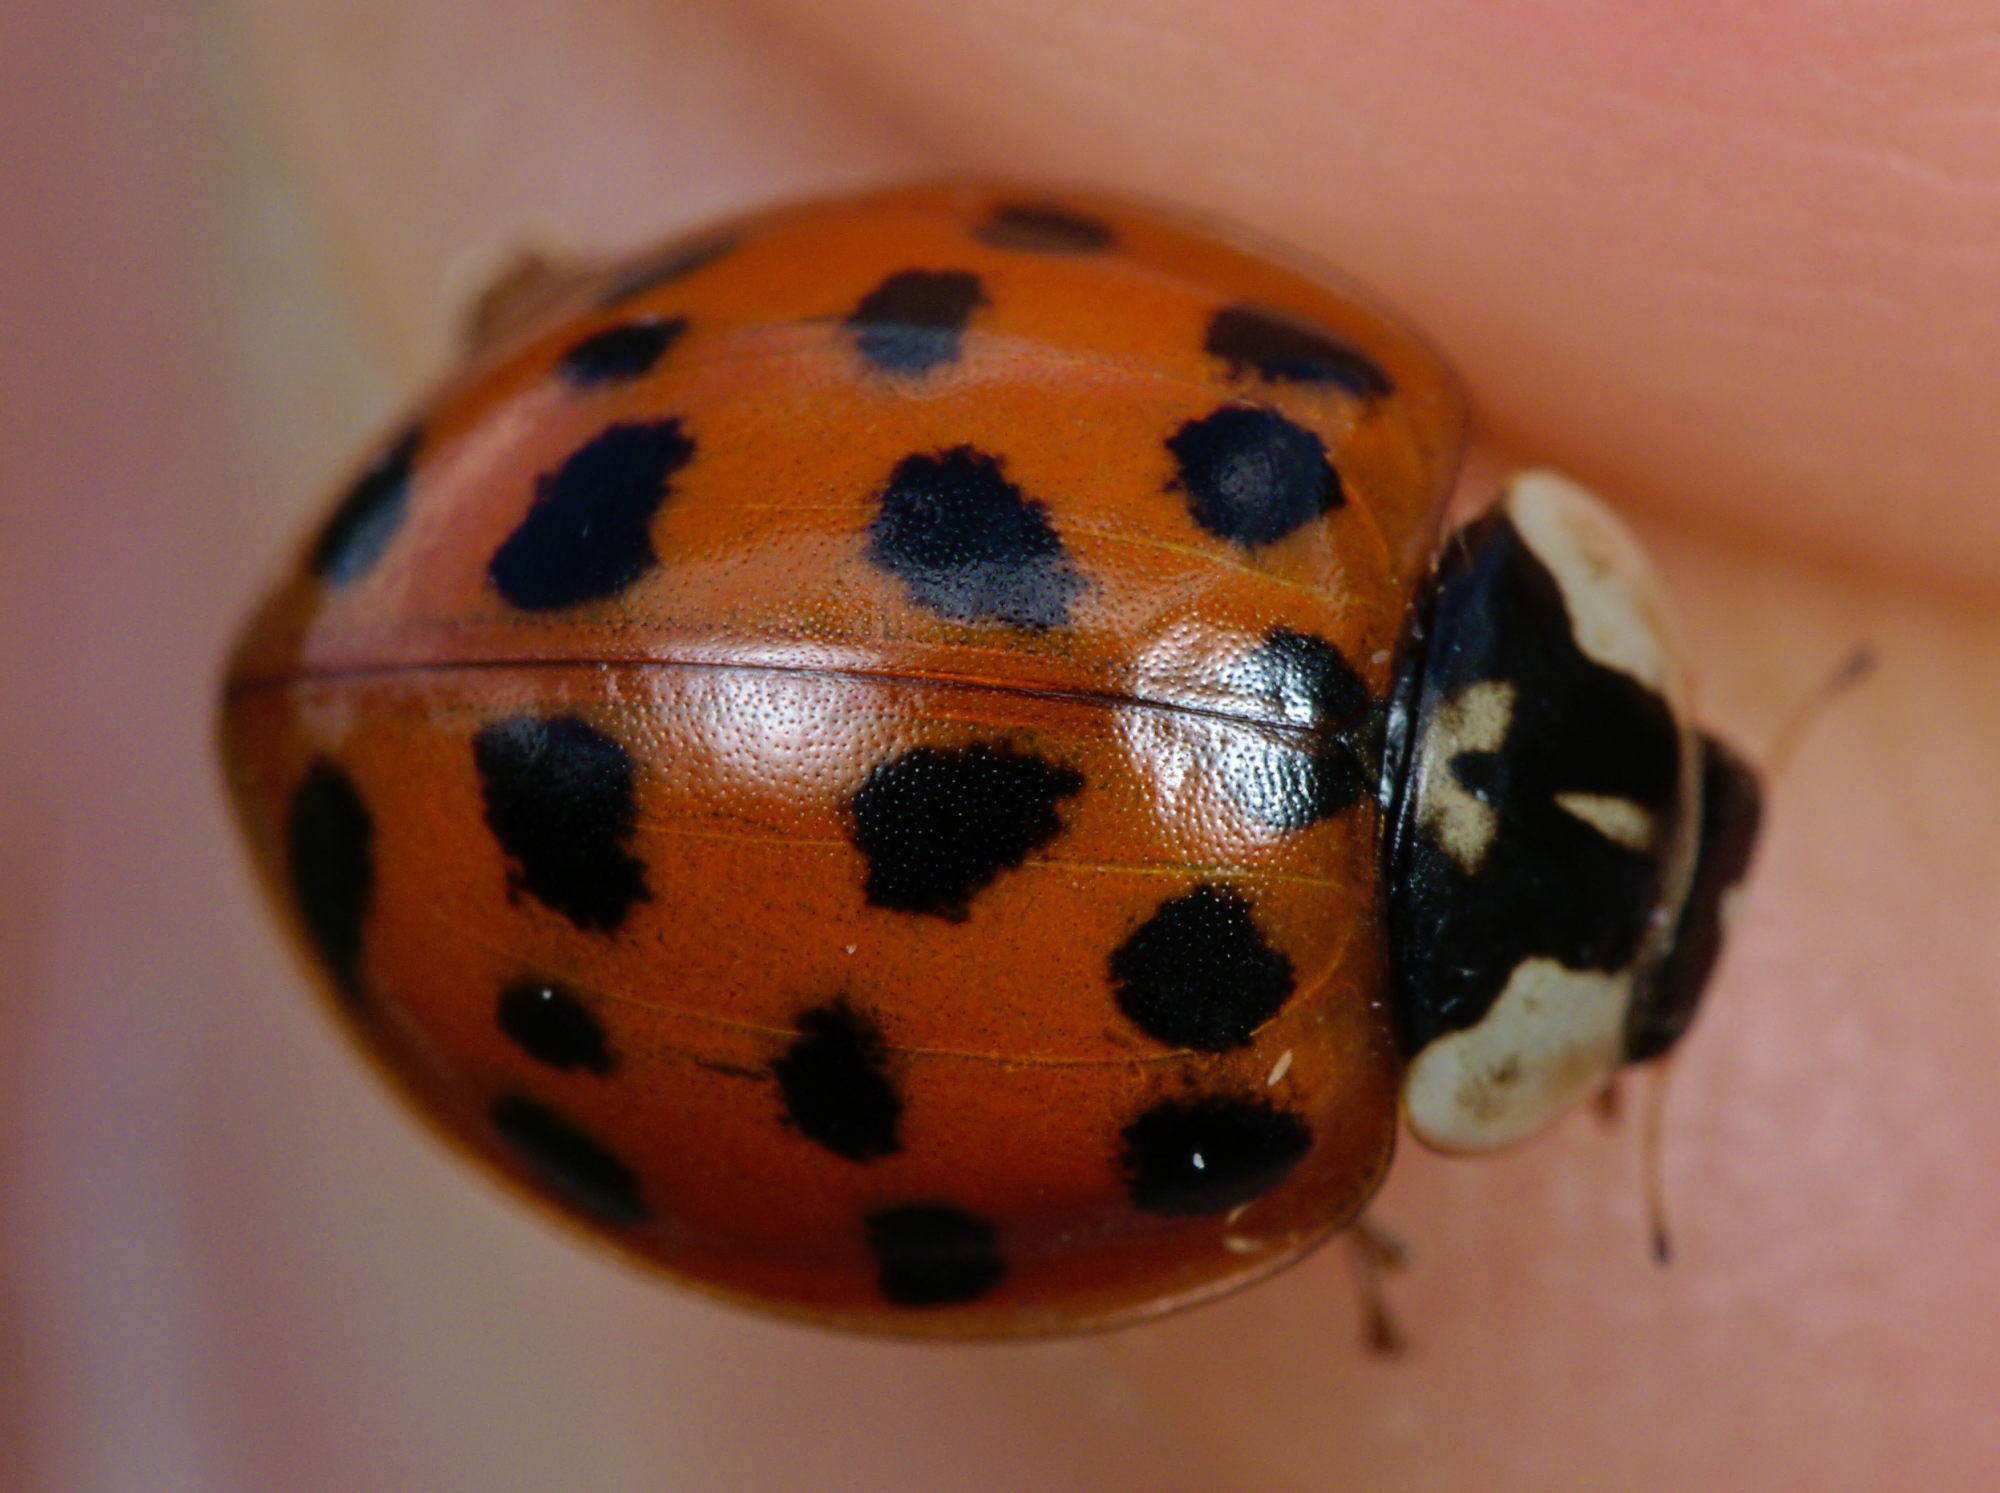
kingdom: Animalia
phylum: Arthropoda
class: Insecta
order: Coleoptera
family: Coccinellidae
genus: Harmonia
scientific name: Harmonia axyridis
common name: Harlequin ladybird
